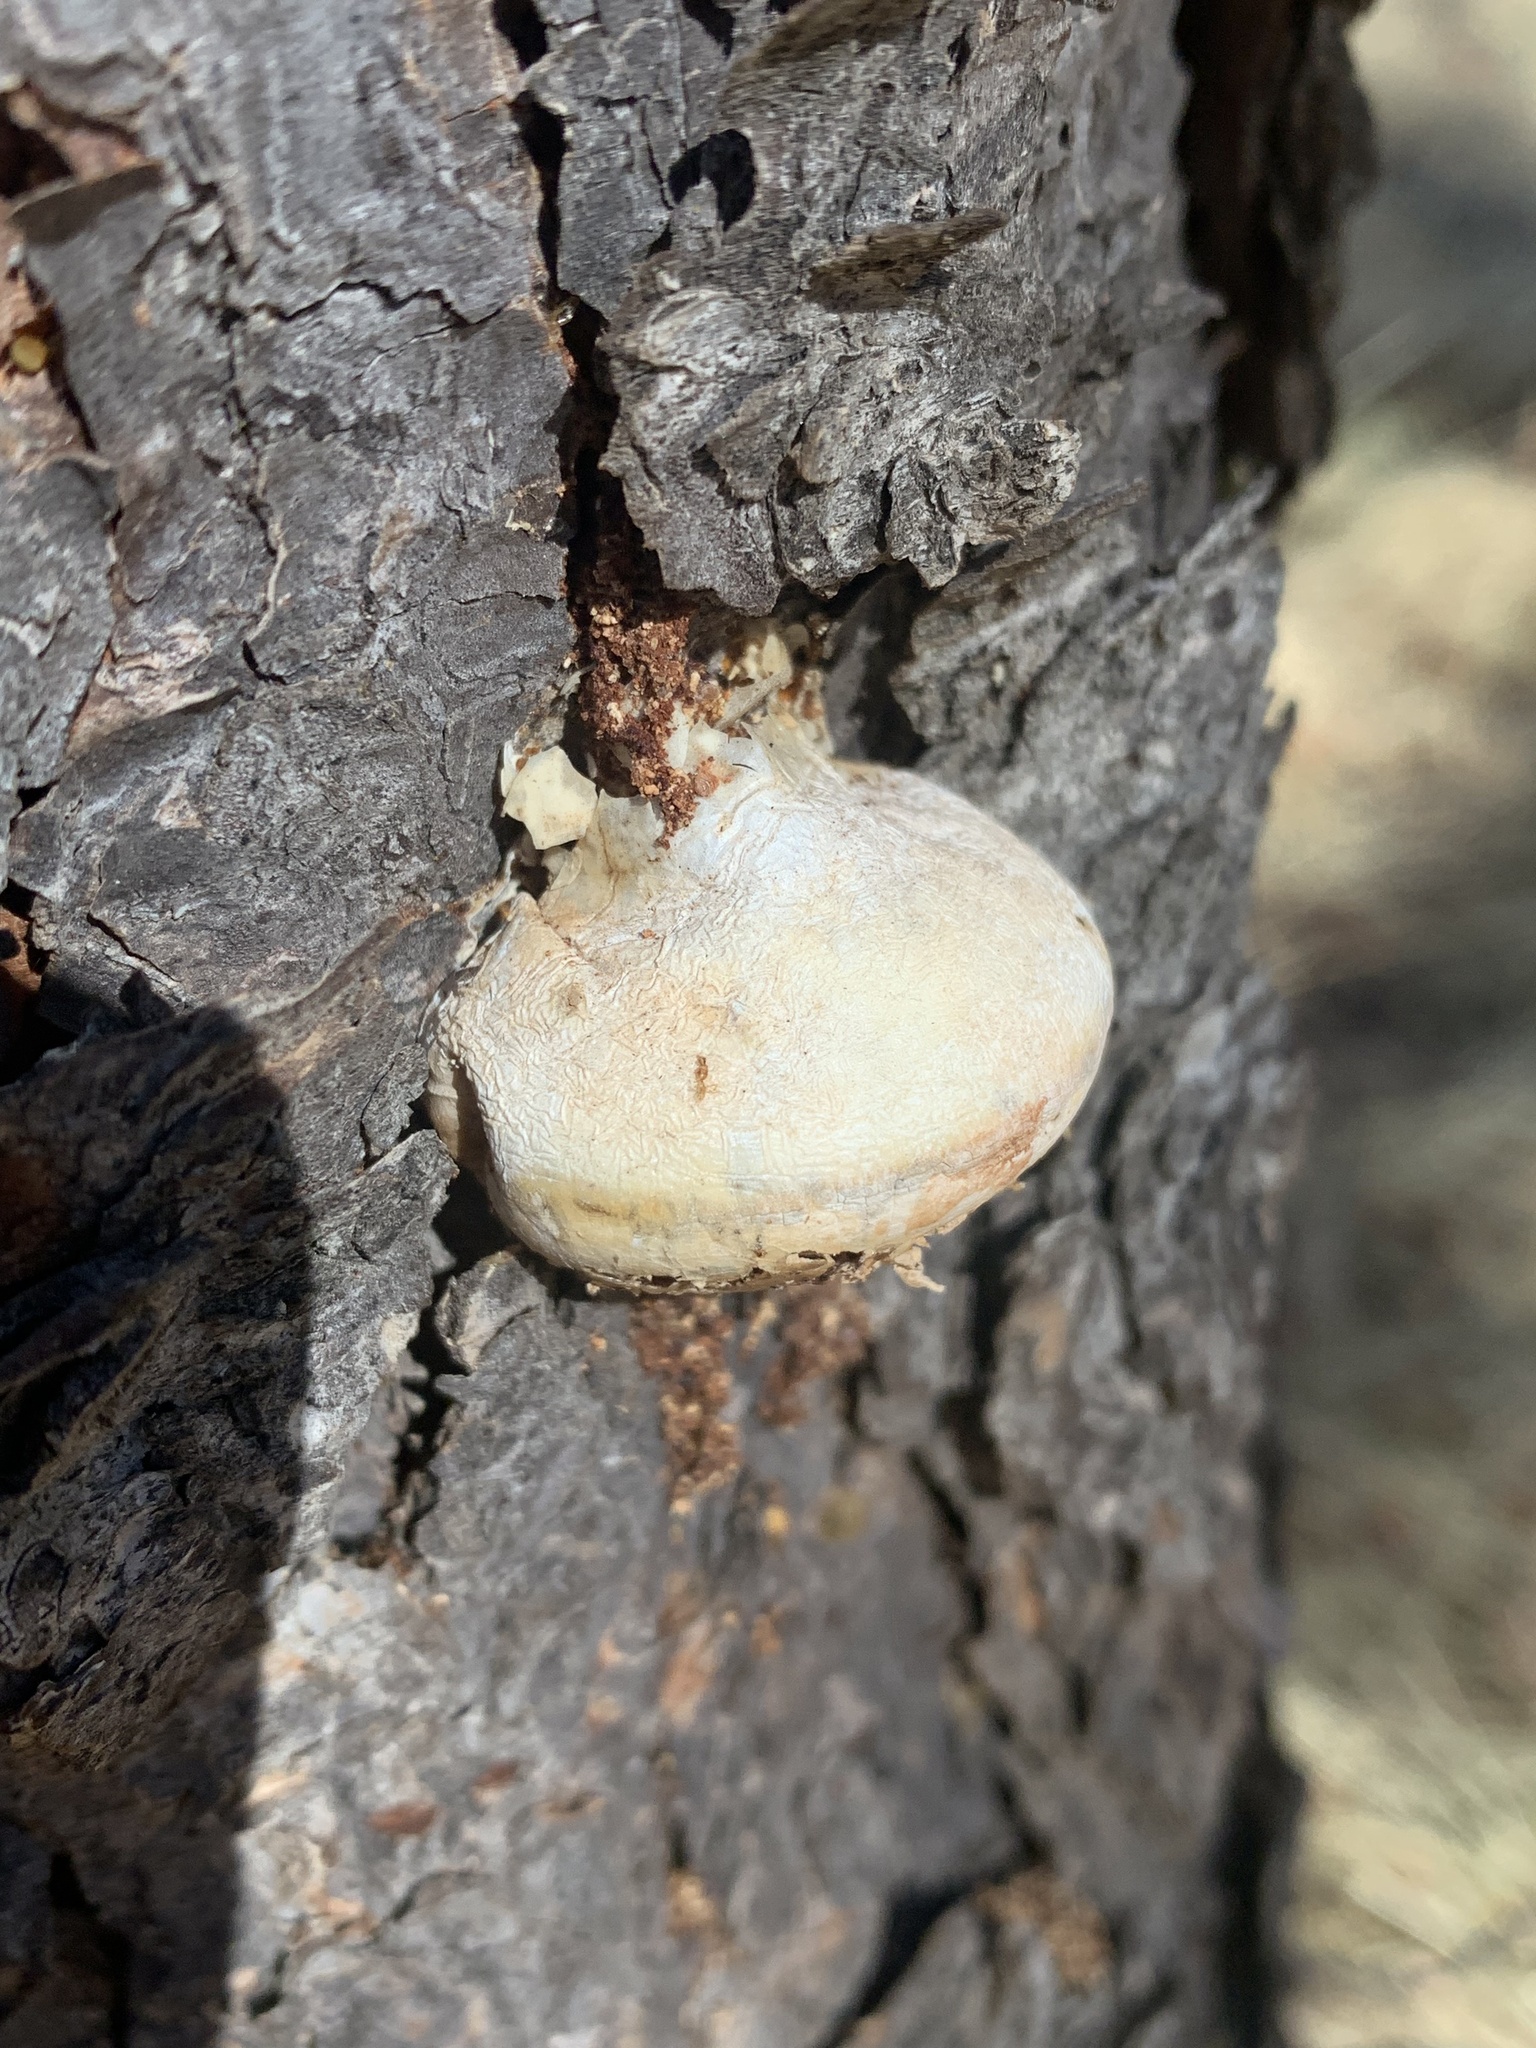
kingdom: Fungi
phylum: Basidiomycota
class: Agaricomycetes
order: Polyporales
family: Polyporaceae
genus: Cryptoporus
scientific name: Cryptoporus volvatus
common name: Veiled polypore
